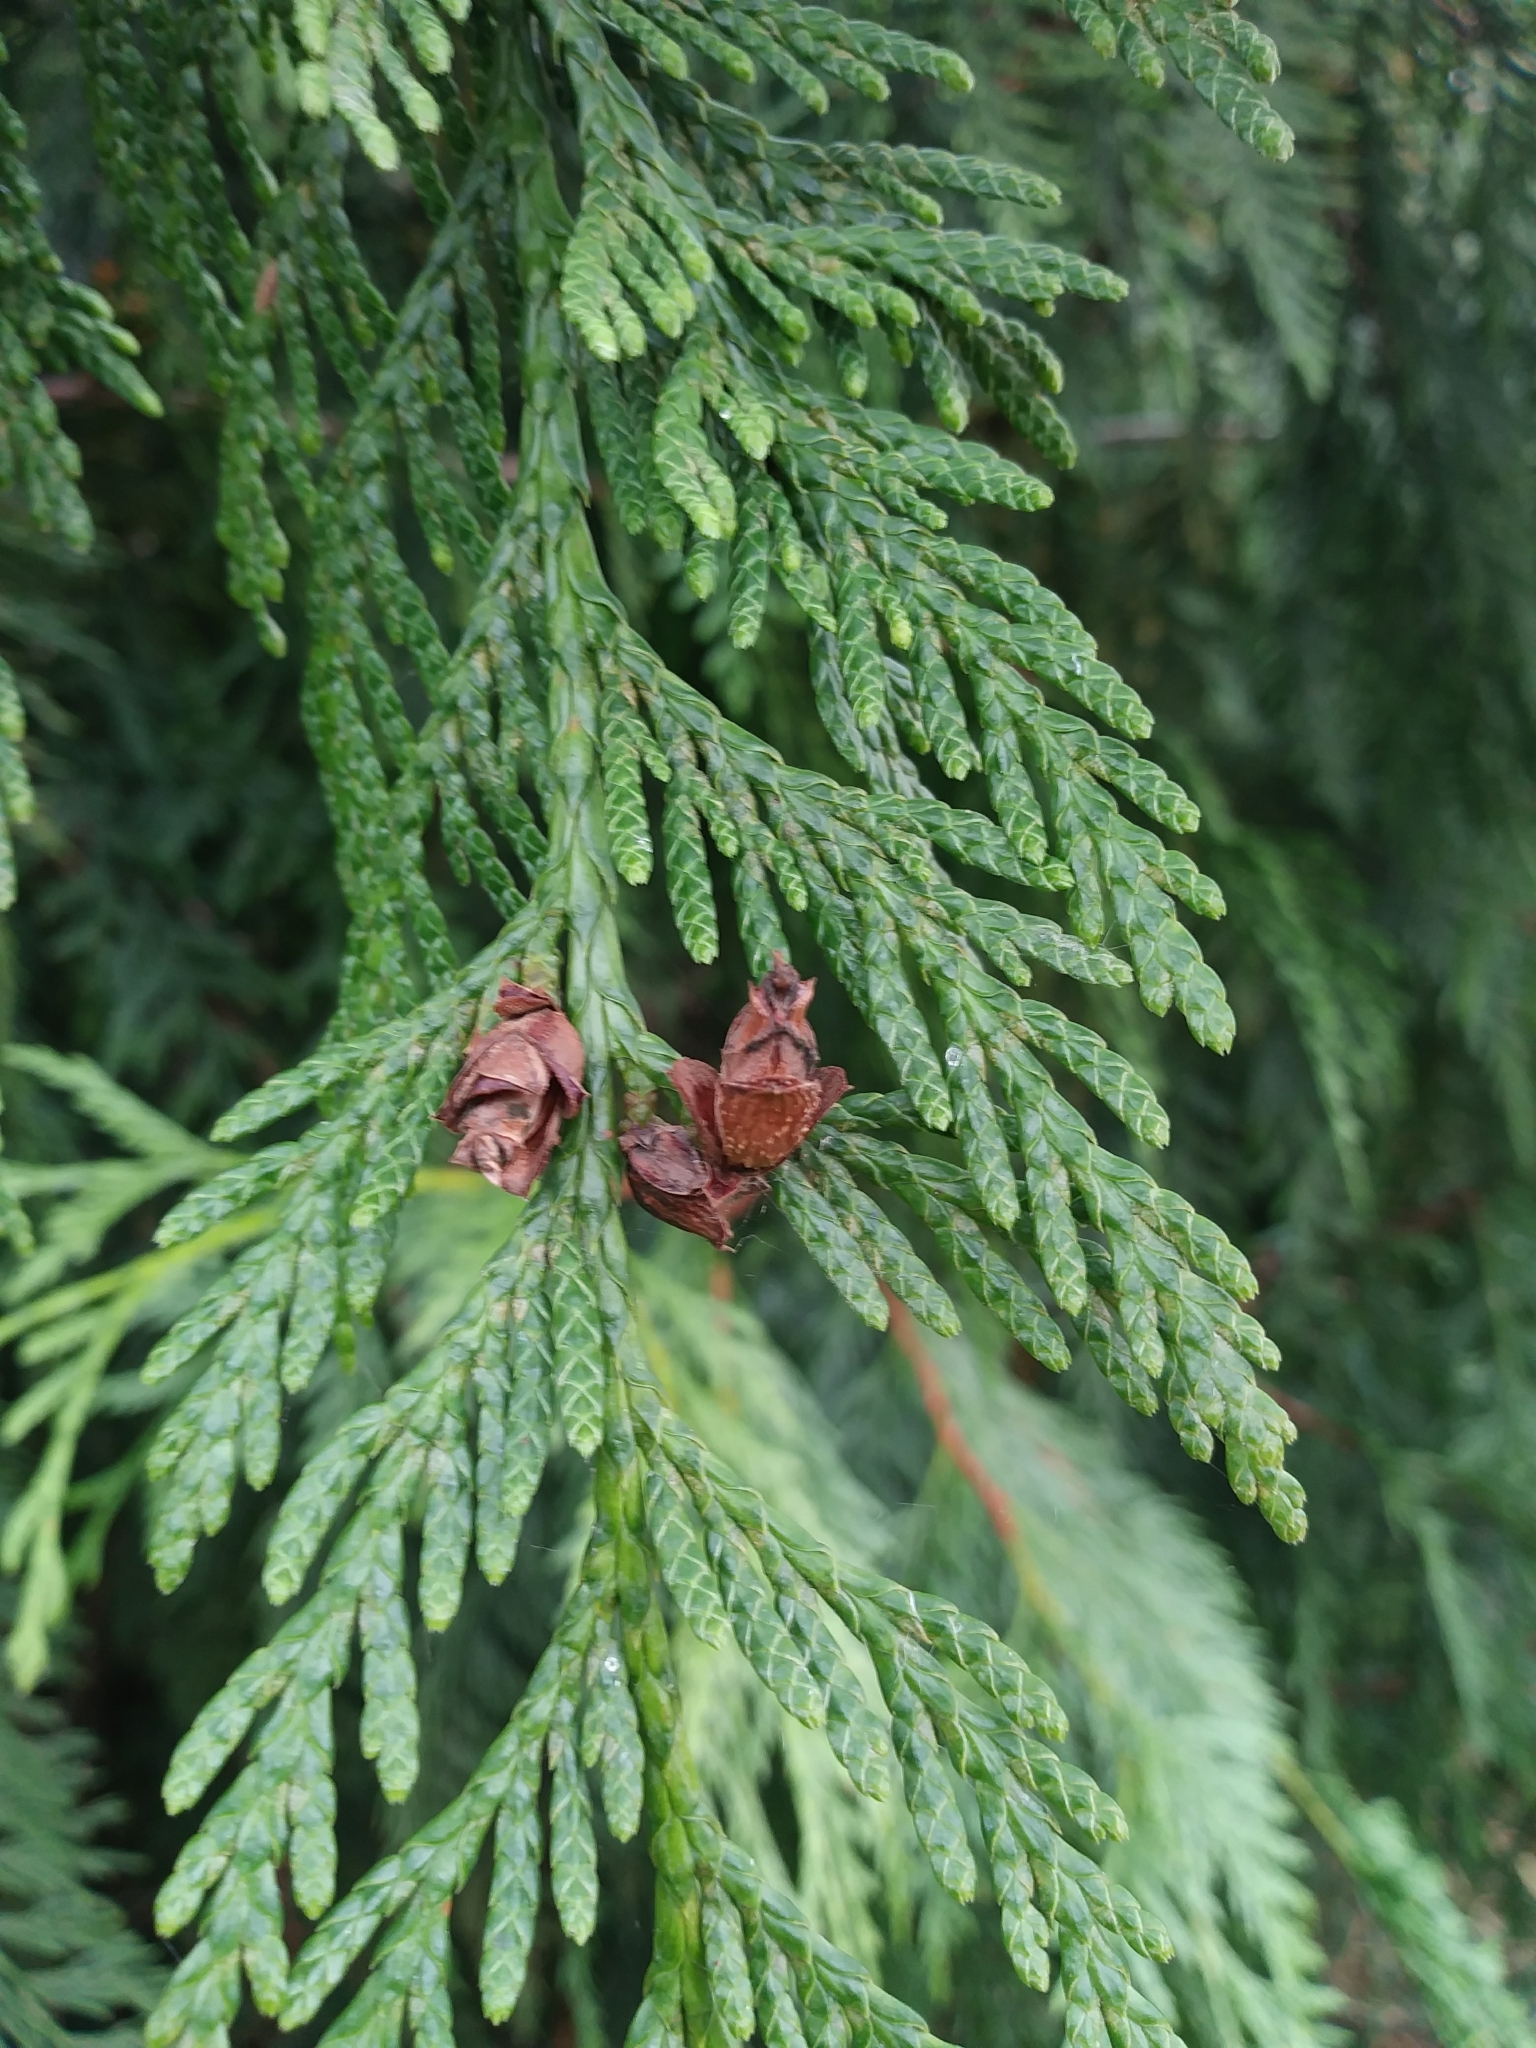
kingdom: Plantae
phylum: Tracheophyta
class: Pinopsida
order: Pinales
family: Cupressaceae
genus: Thuja
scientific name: Thuja plicata
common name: Western red-cedar
